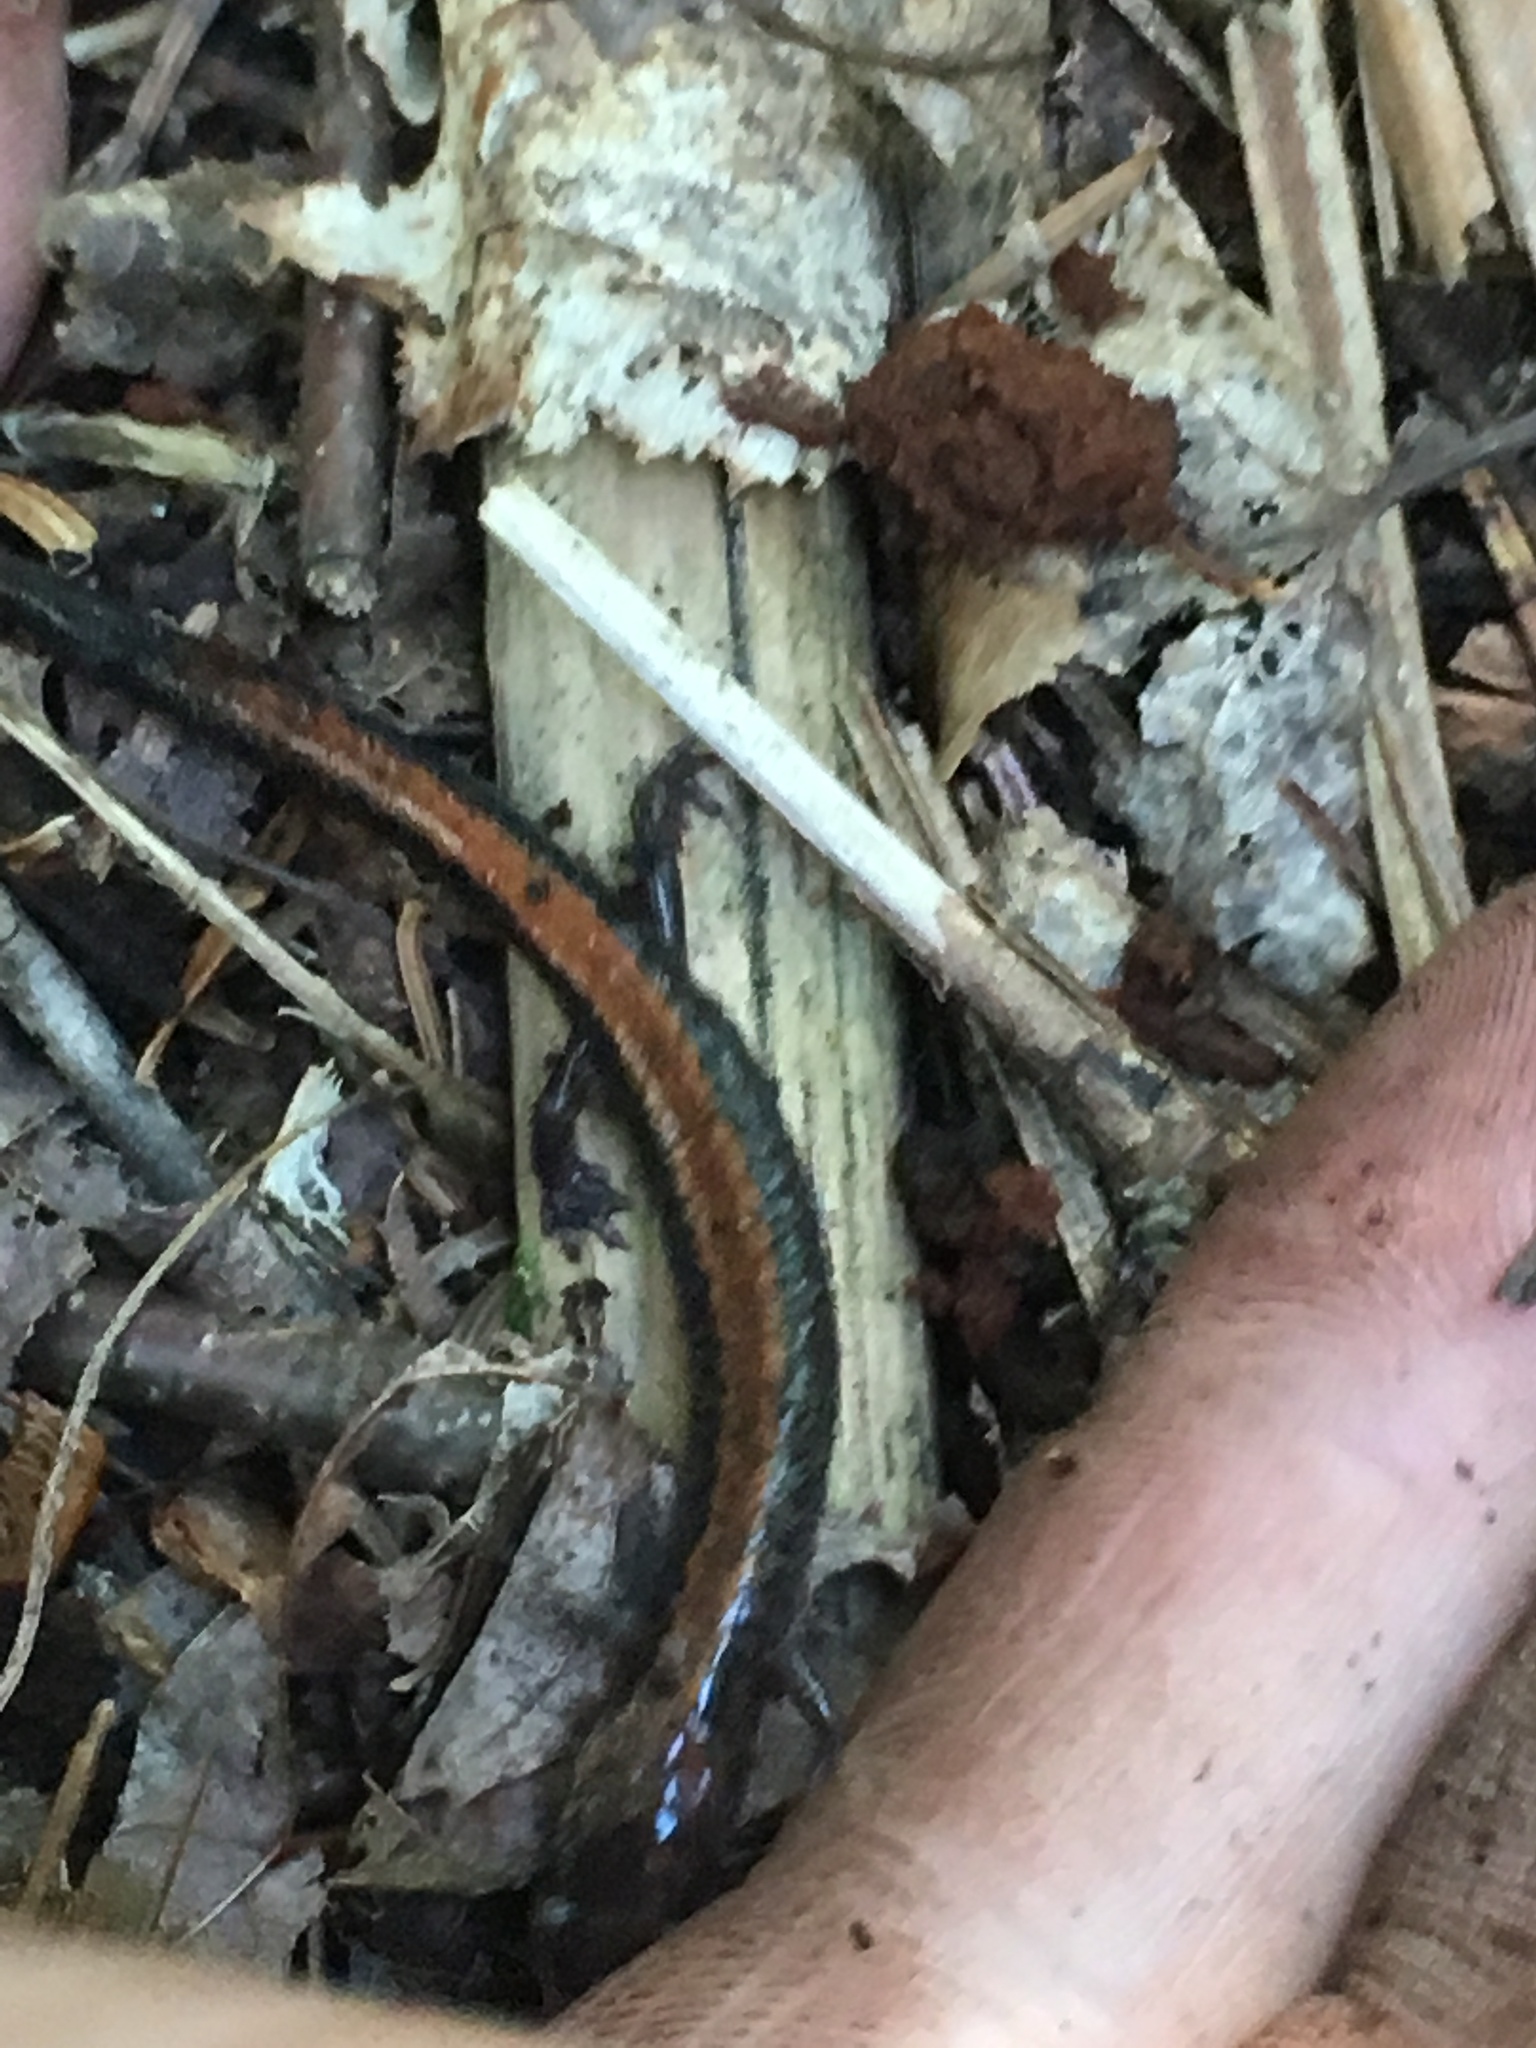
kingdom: Animalia
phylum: Chordata
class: Amphibia
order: Caudata
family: Plethodontidae
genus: Plethodon
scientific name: Plethodon cinereus
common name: Redback salamander
